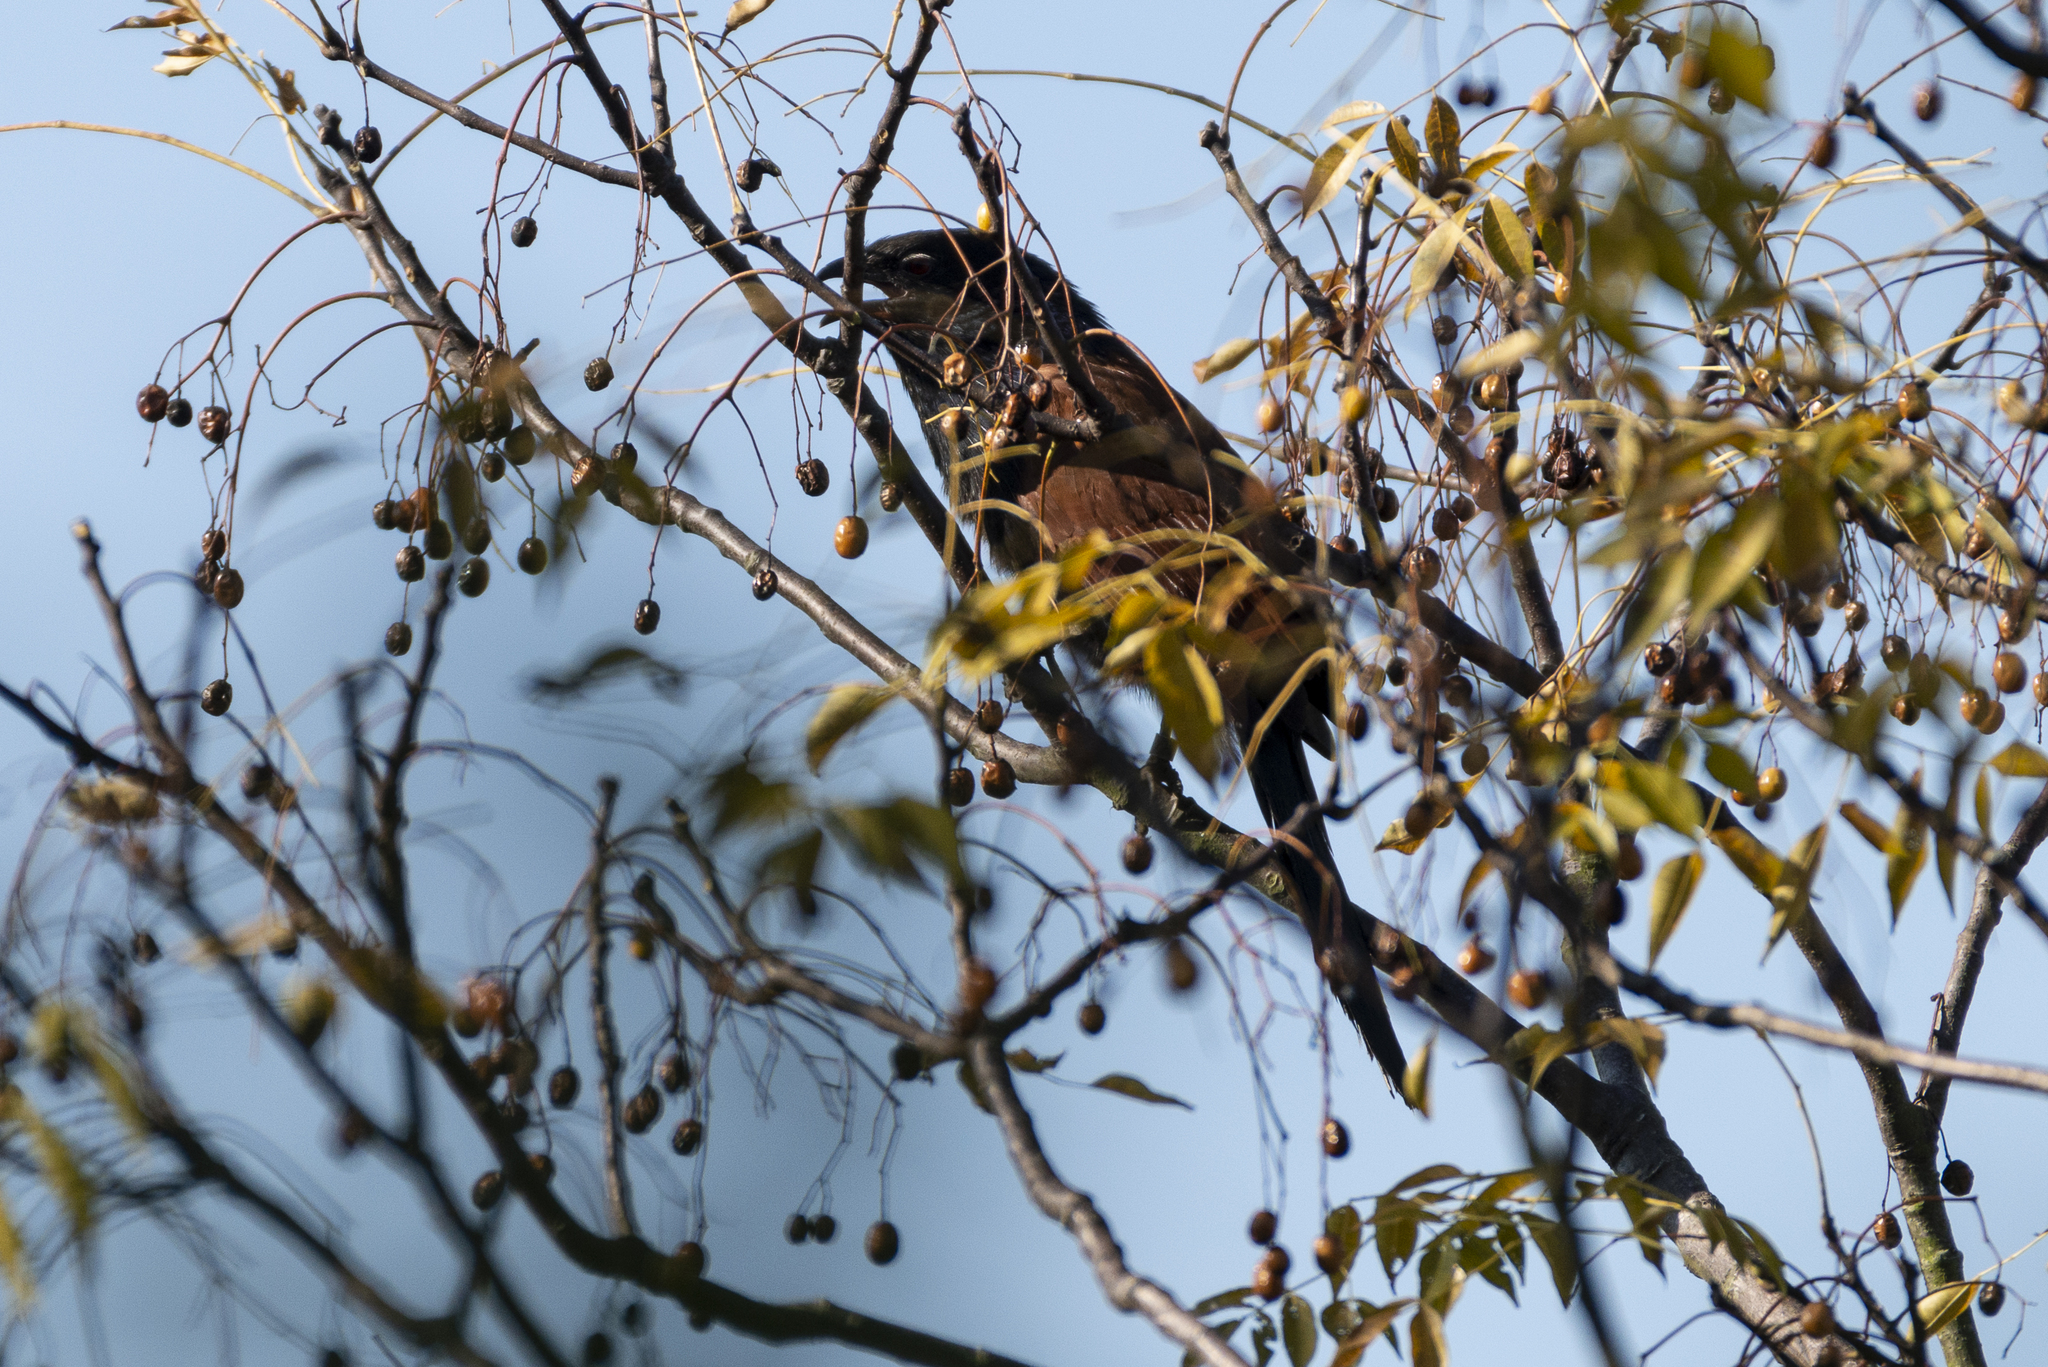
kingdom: Animalia
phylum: Chordata
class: Aves
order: Cuculiformes
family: Cuculidae
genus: Centropus
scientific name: Centropus bengalensis
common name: Lesser coucal
